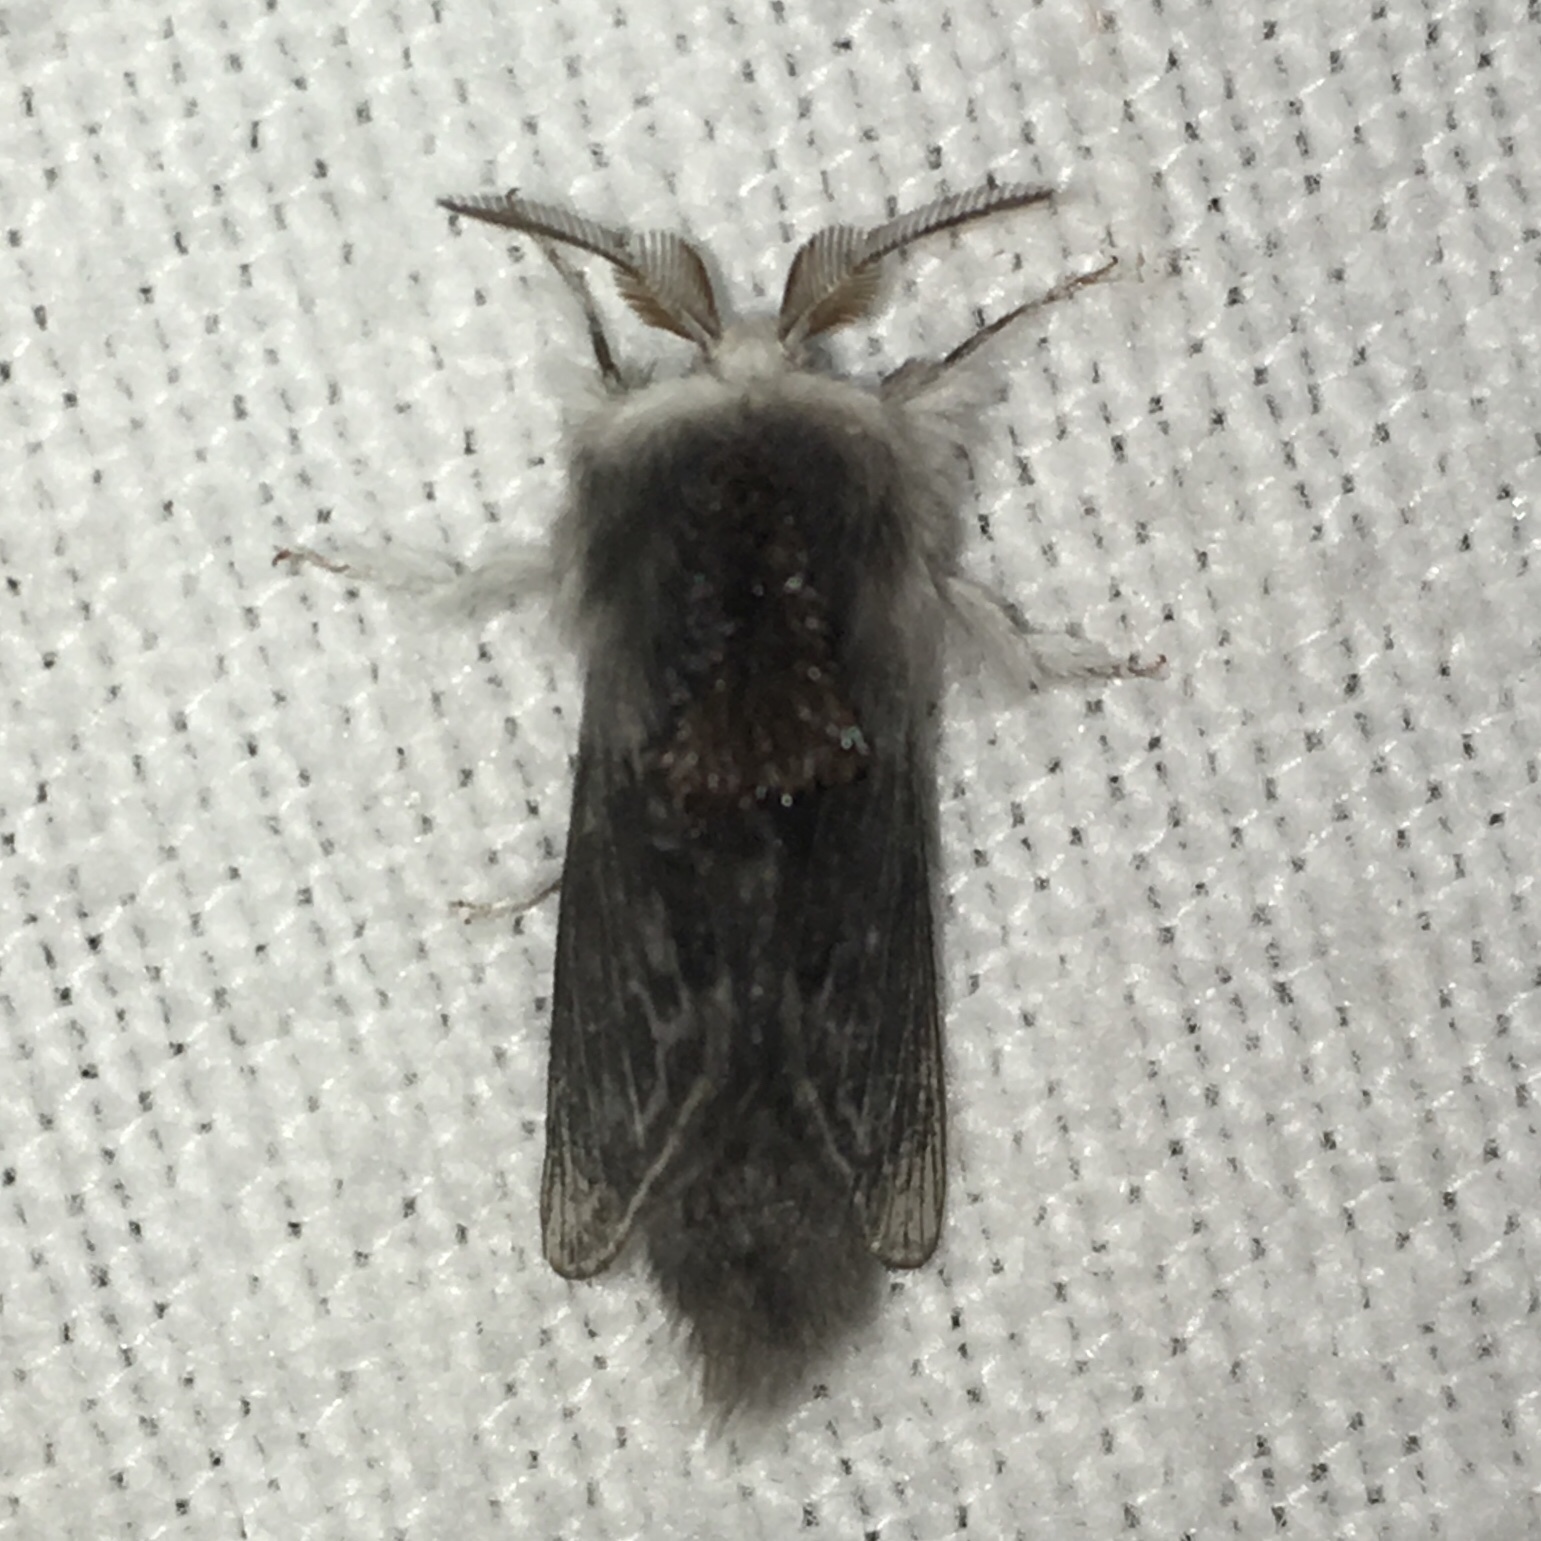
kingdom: Animalia
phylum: Arthropoda
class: Insecta
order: Lepidoptera
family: Lasiocampidae
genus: Tolype
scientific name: Tolype laricis
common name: Larch tolype moth
